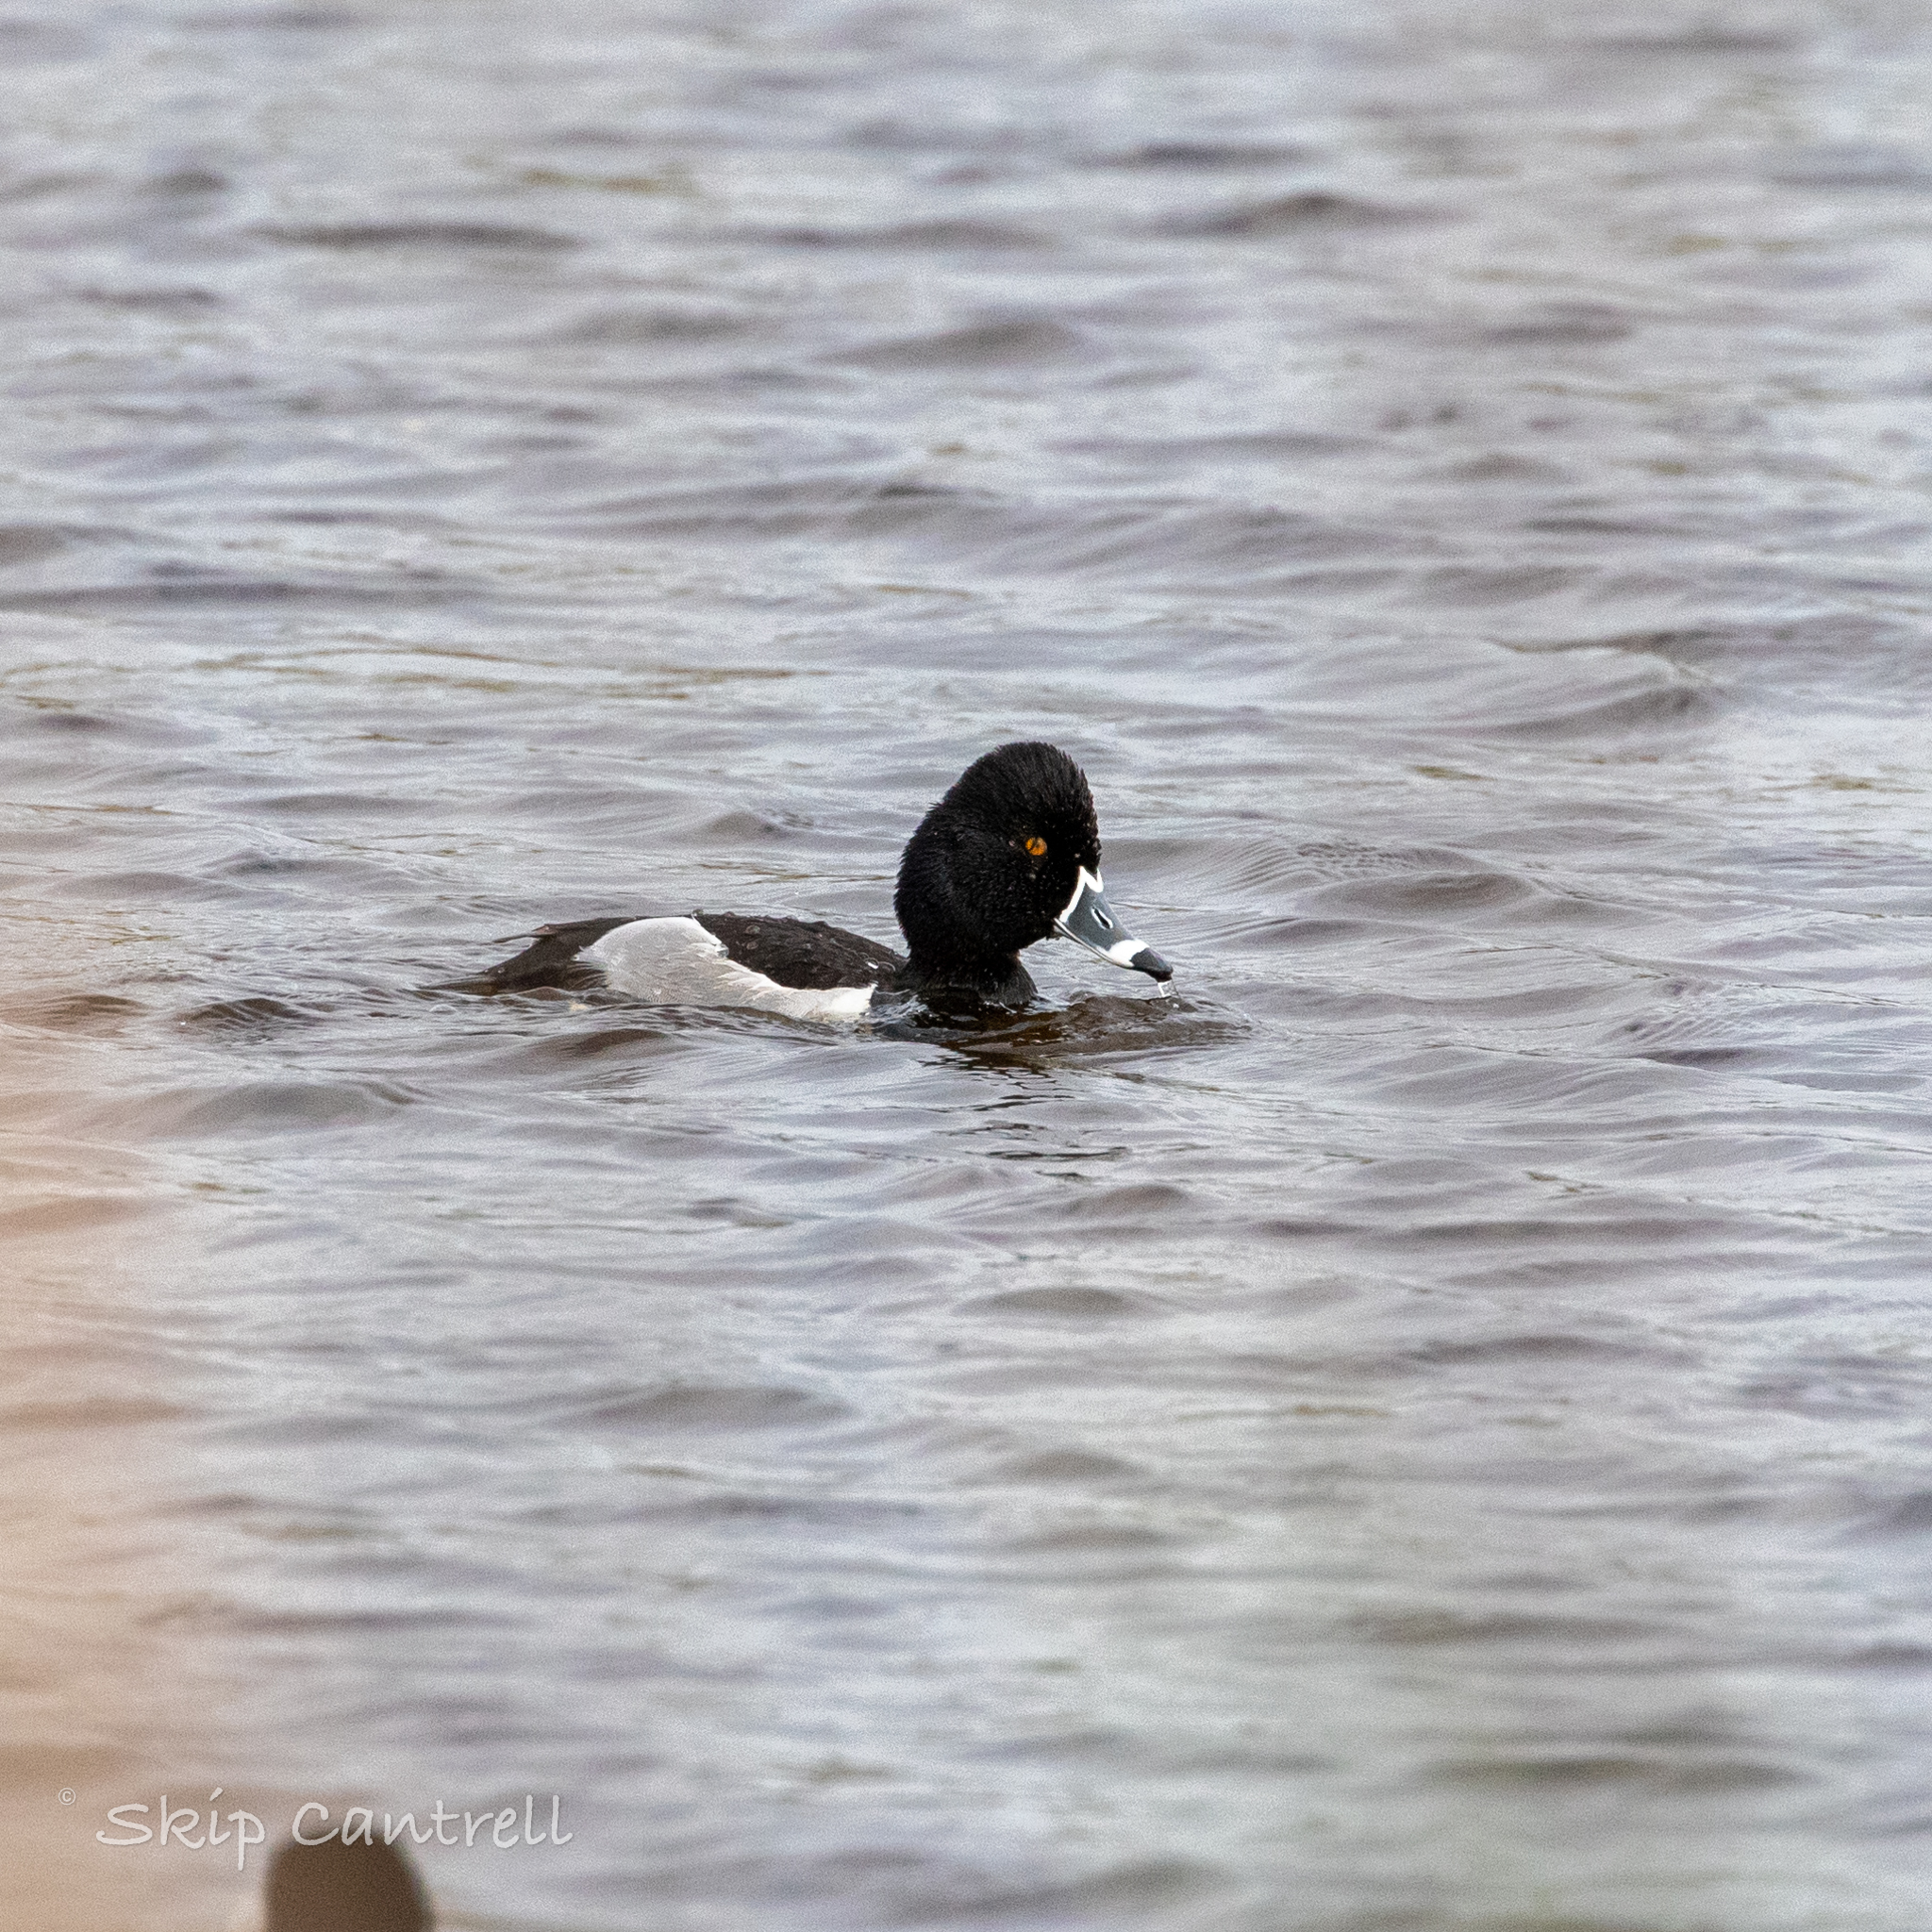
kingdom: Animalia
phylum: Chordata
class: Aves
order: Anseriformes
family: Anatidae
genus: Aythya
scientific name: Aythya collaris
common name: Ring-necked duck
